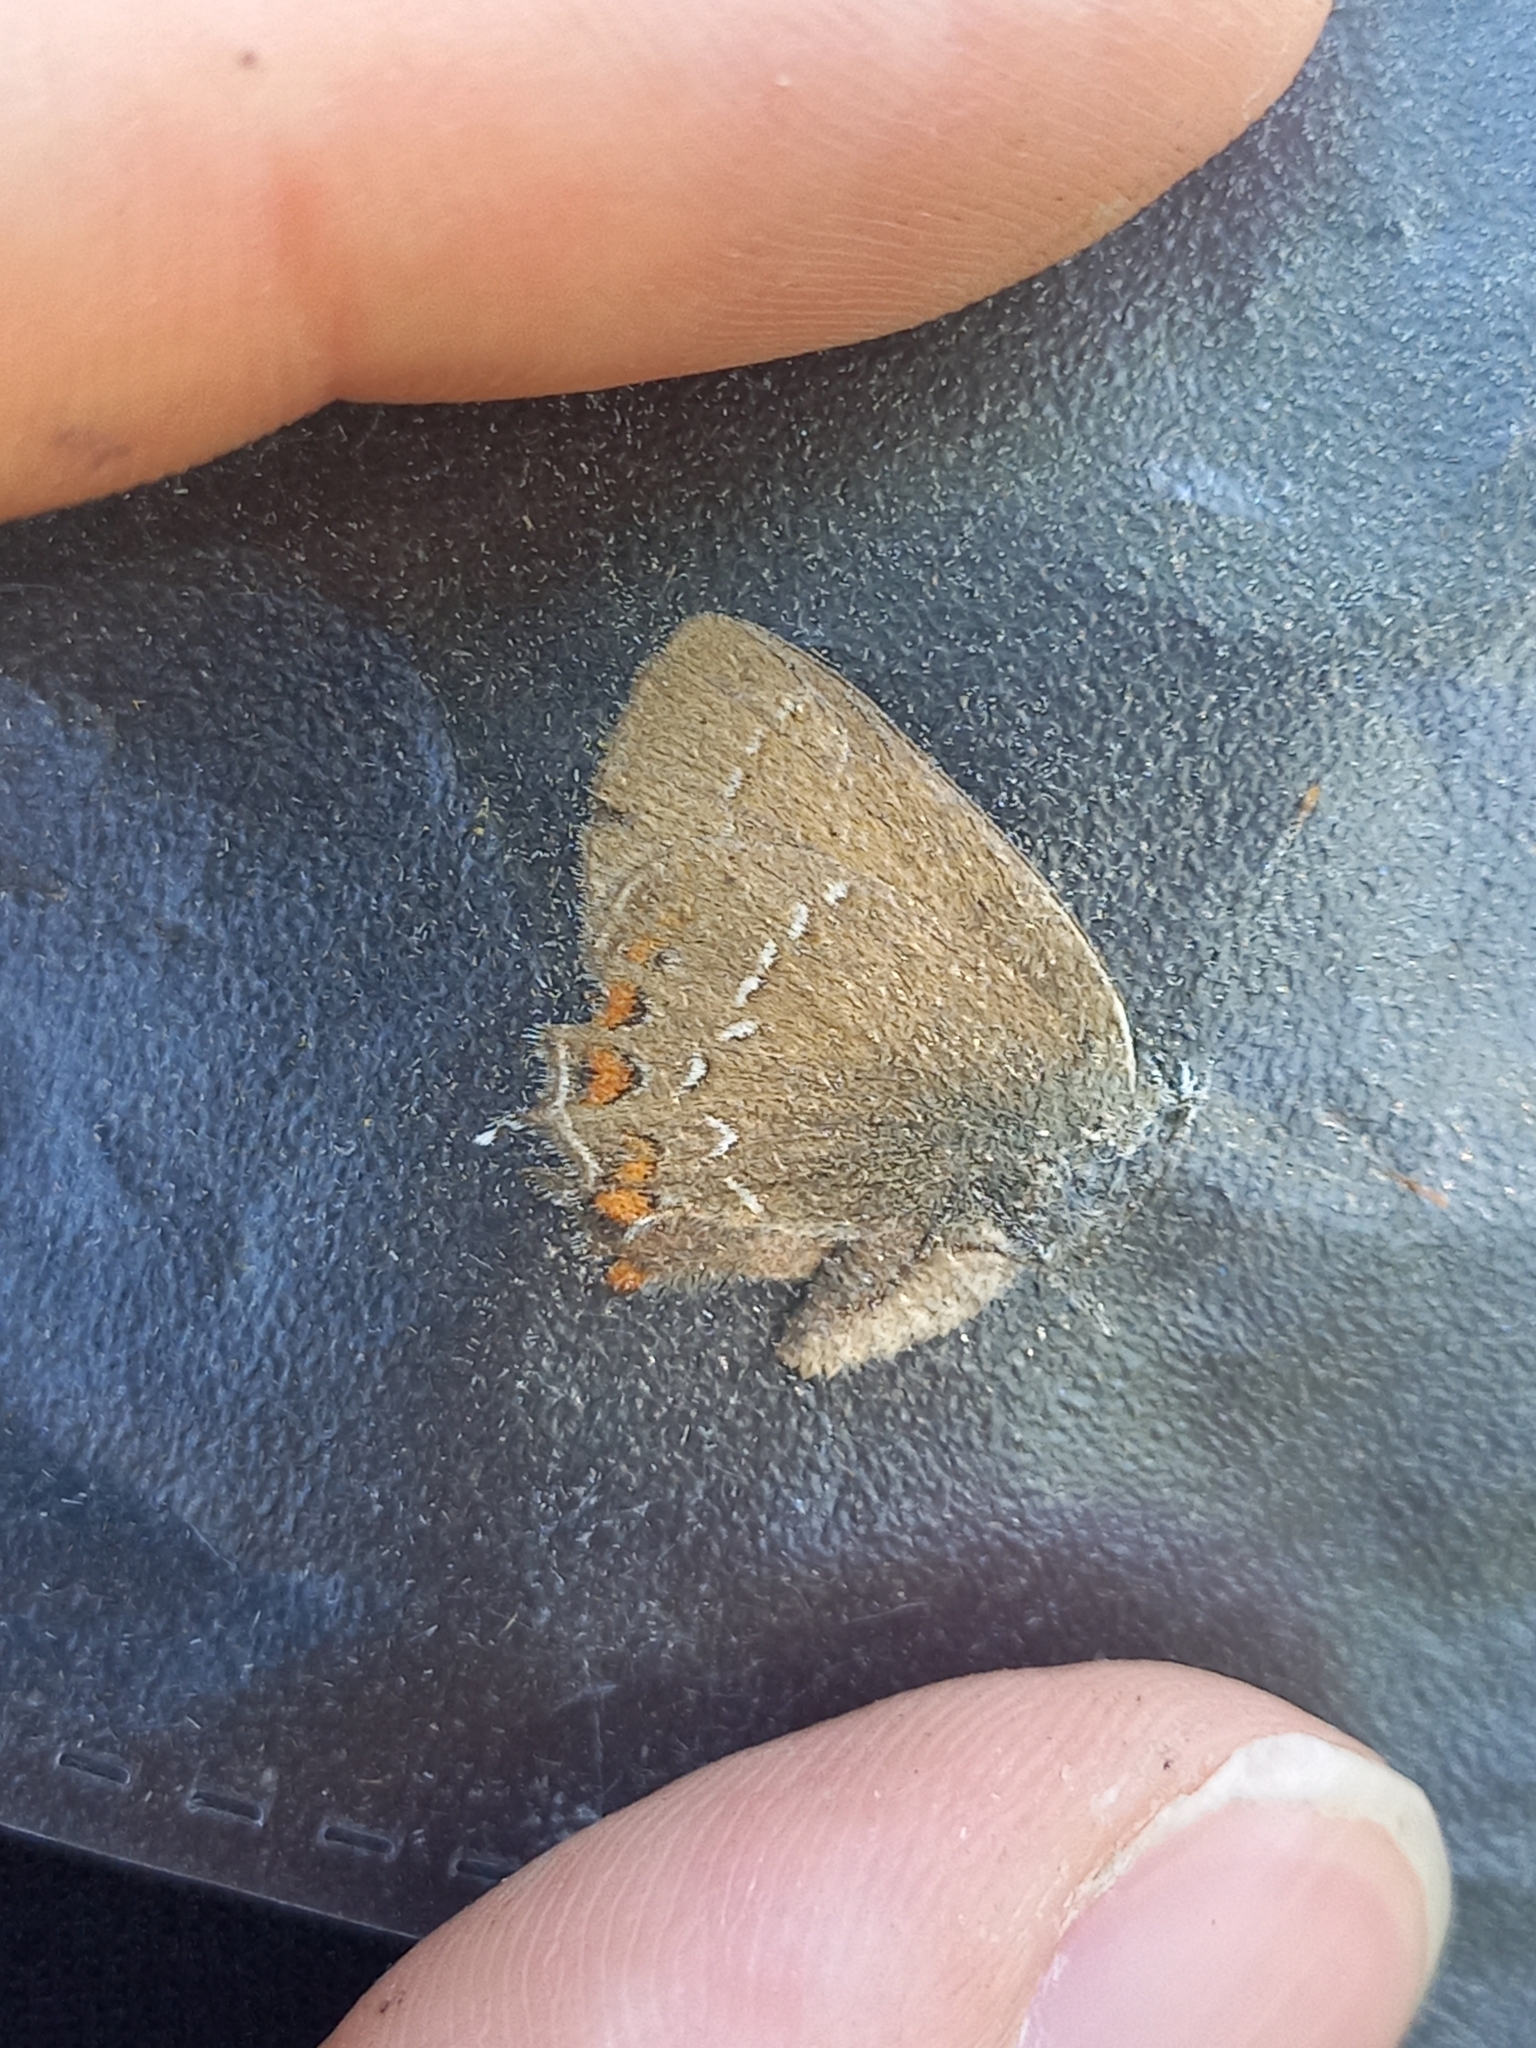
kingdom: Animalia
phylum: Arthropoda
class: Insecta
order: Lepidoptera
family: Lycaenidae
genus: Nordmannia
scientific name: Nordmannia ilicis
